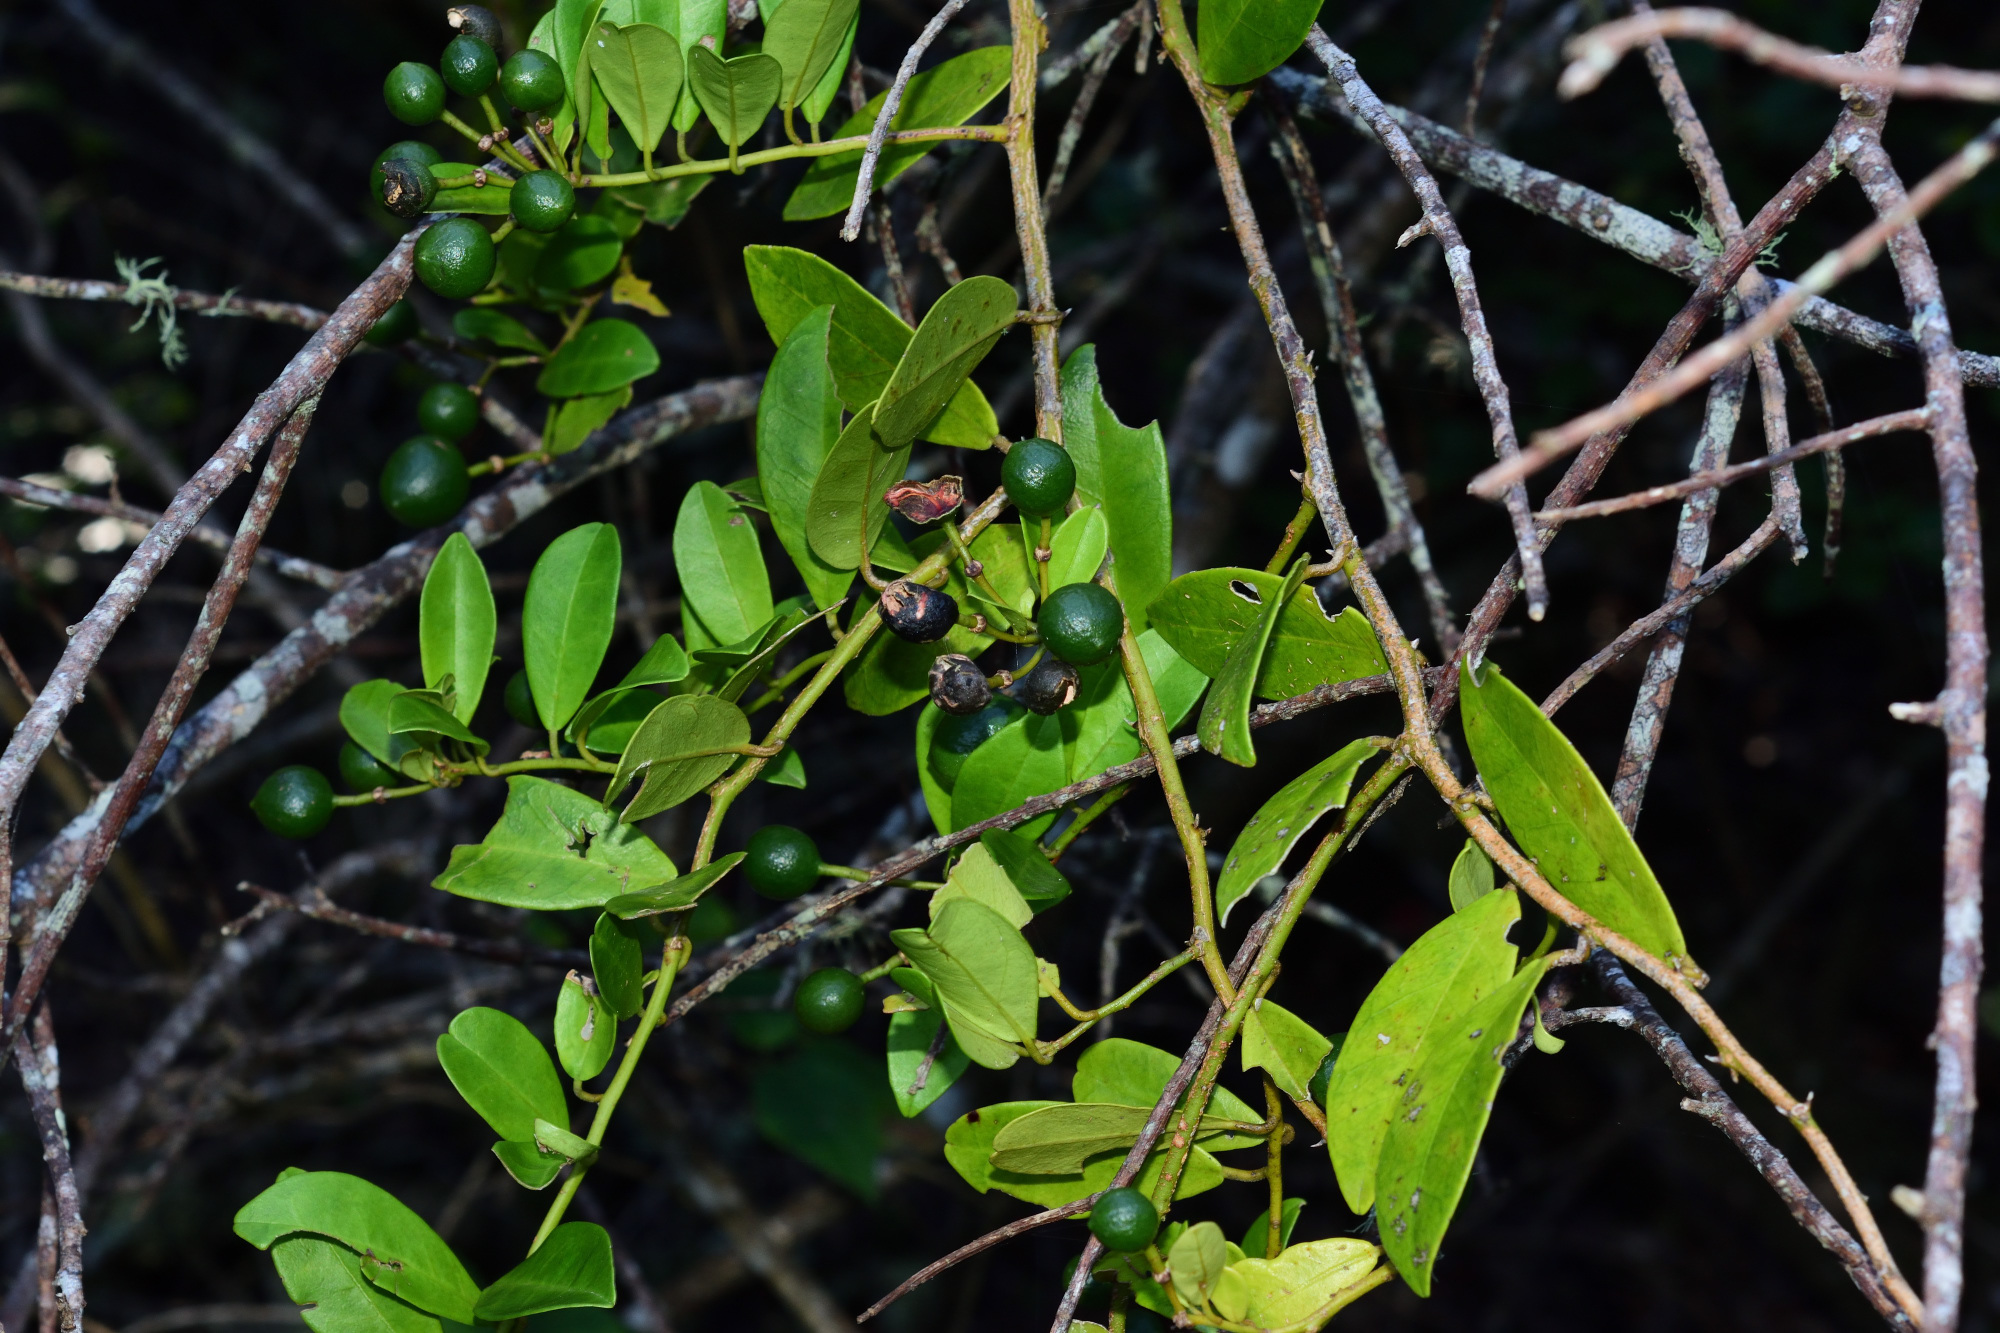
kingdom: Plantae
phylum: Tracheophyta
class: Magnoliopsida
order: Brassicales
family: Capparaceae
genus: Capparis
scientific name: Capparis sepiaria
